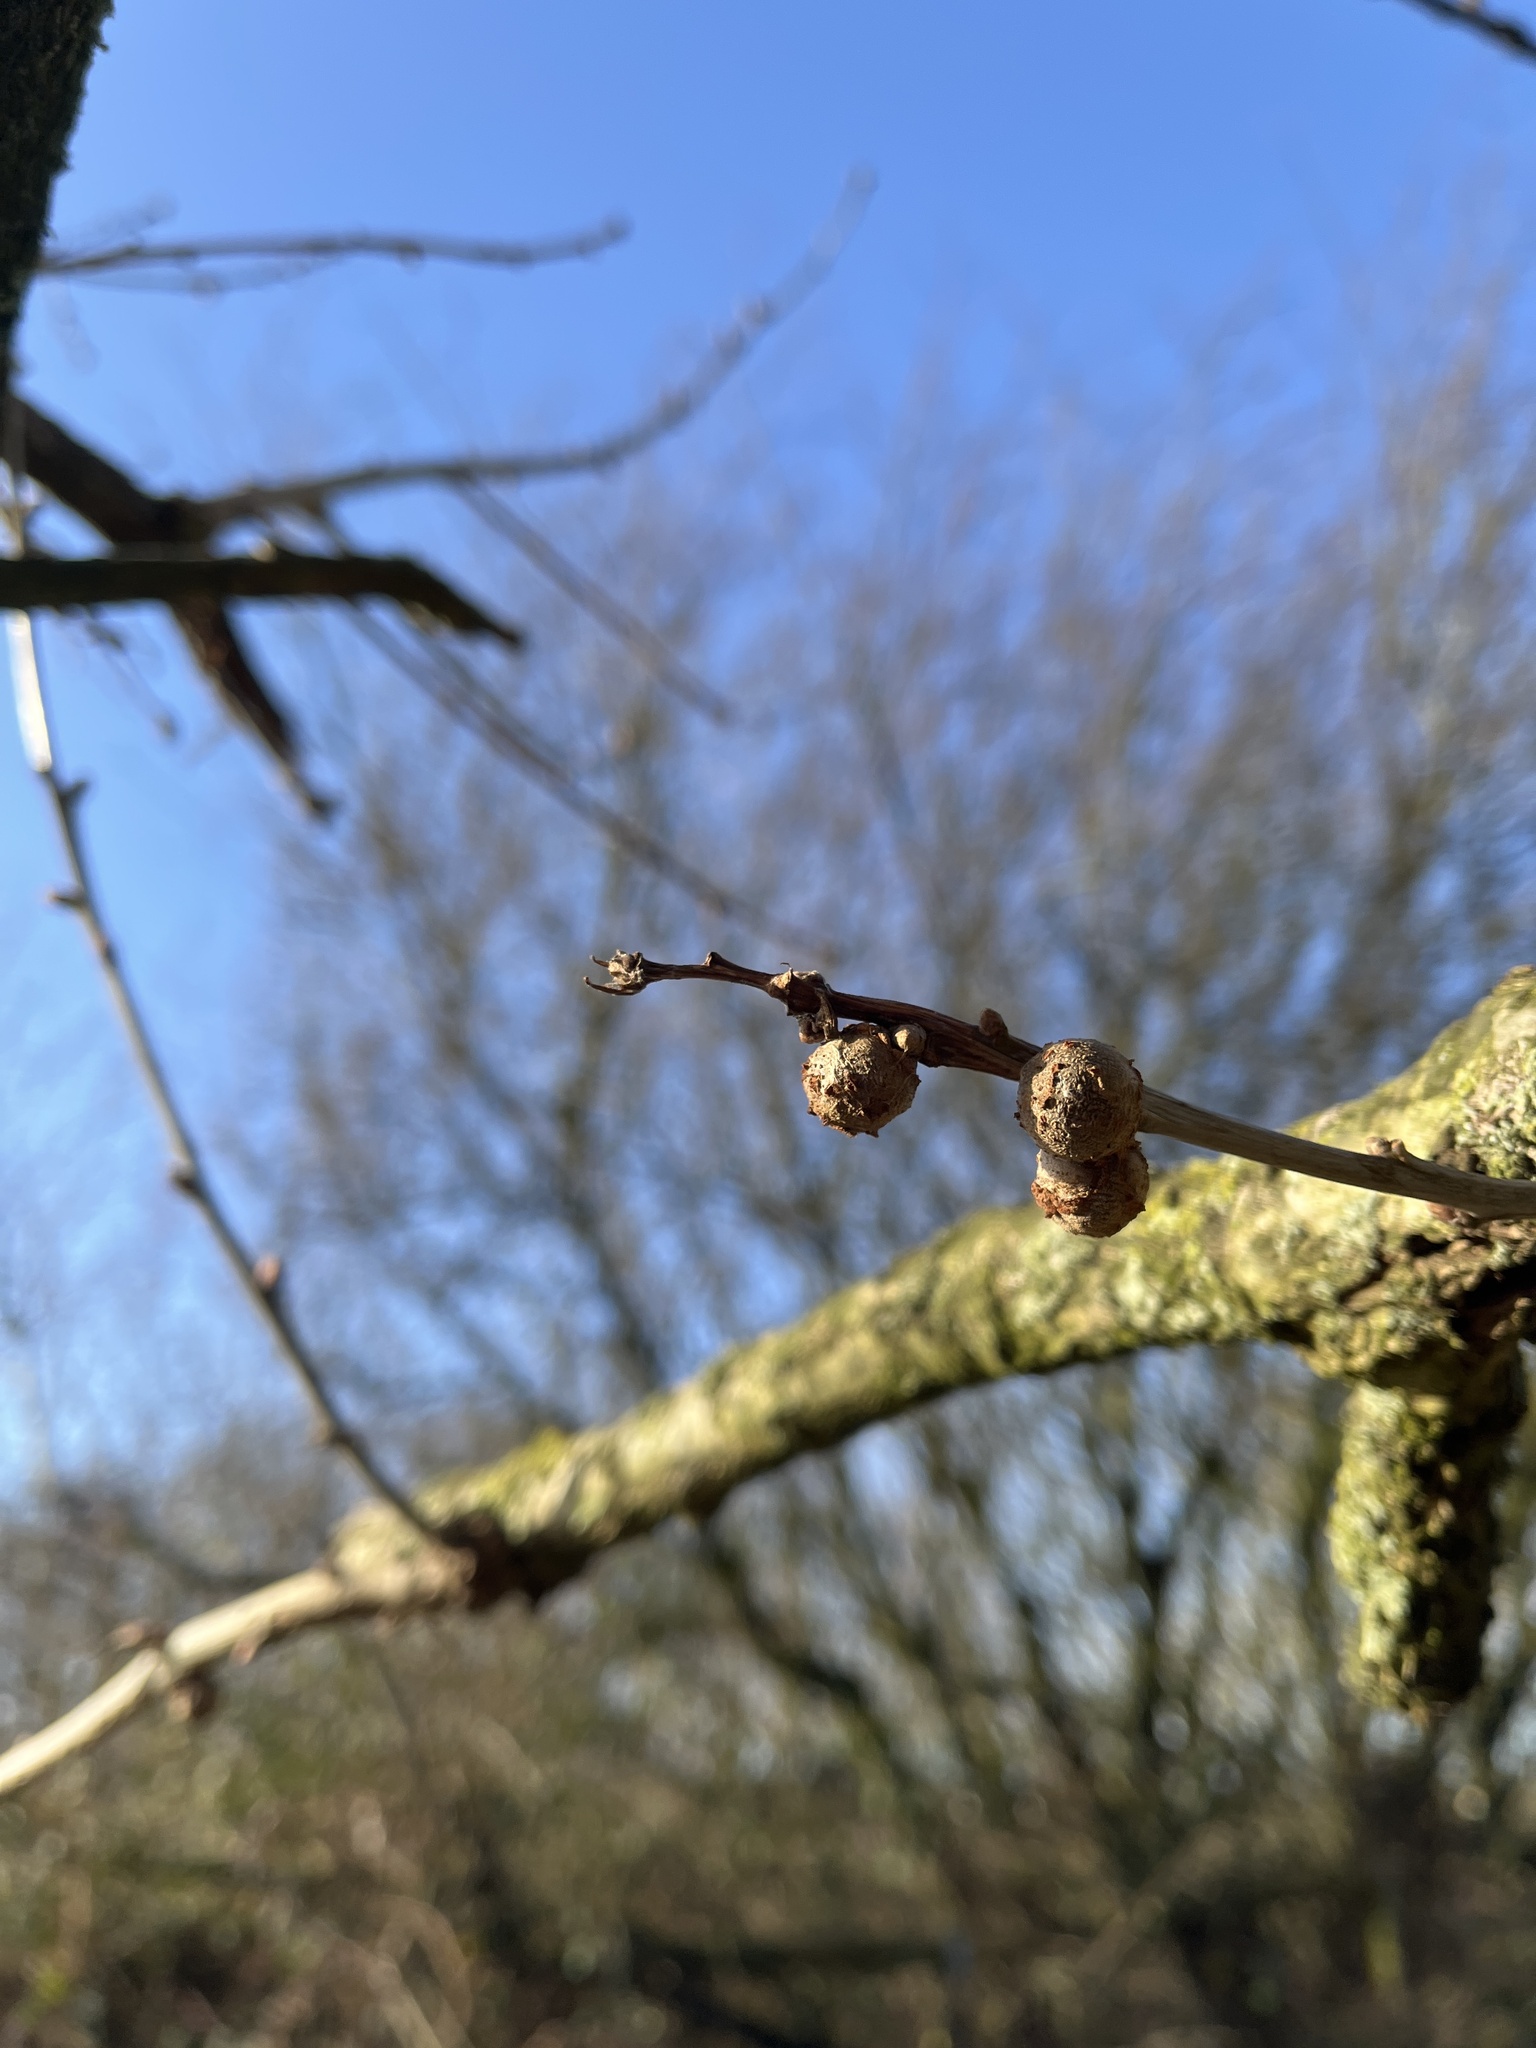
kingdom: Animalia
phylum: Arthropoda
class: Insecta
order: Hymenoptera
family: Cynipidae
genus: Andricus
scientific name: Andricus lignicolus
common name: Cola-nut gall
